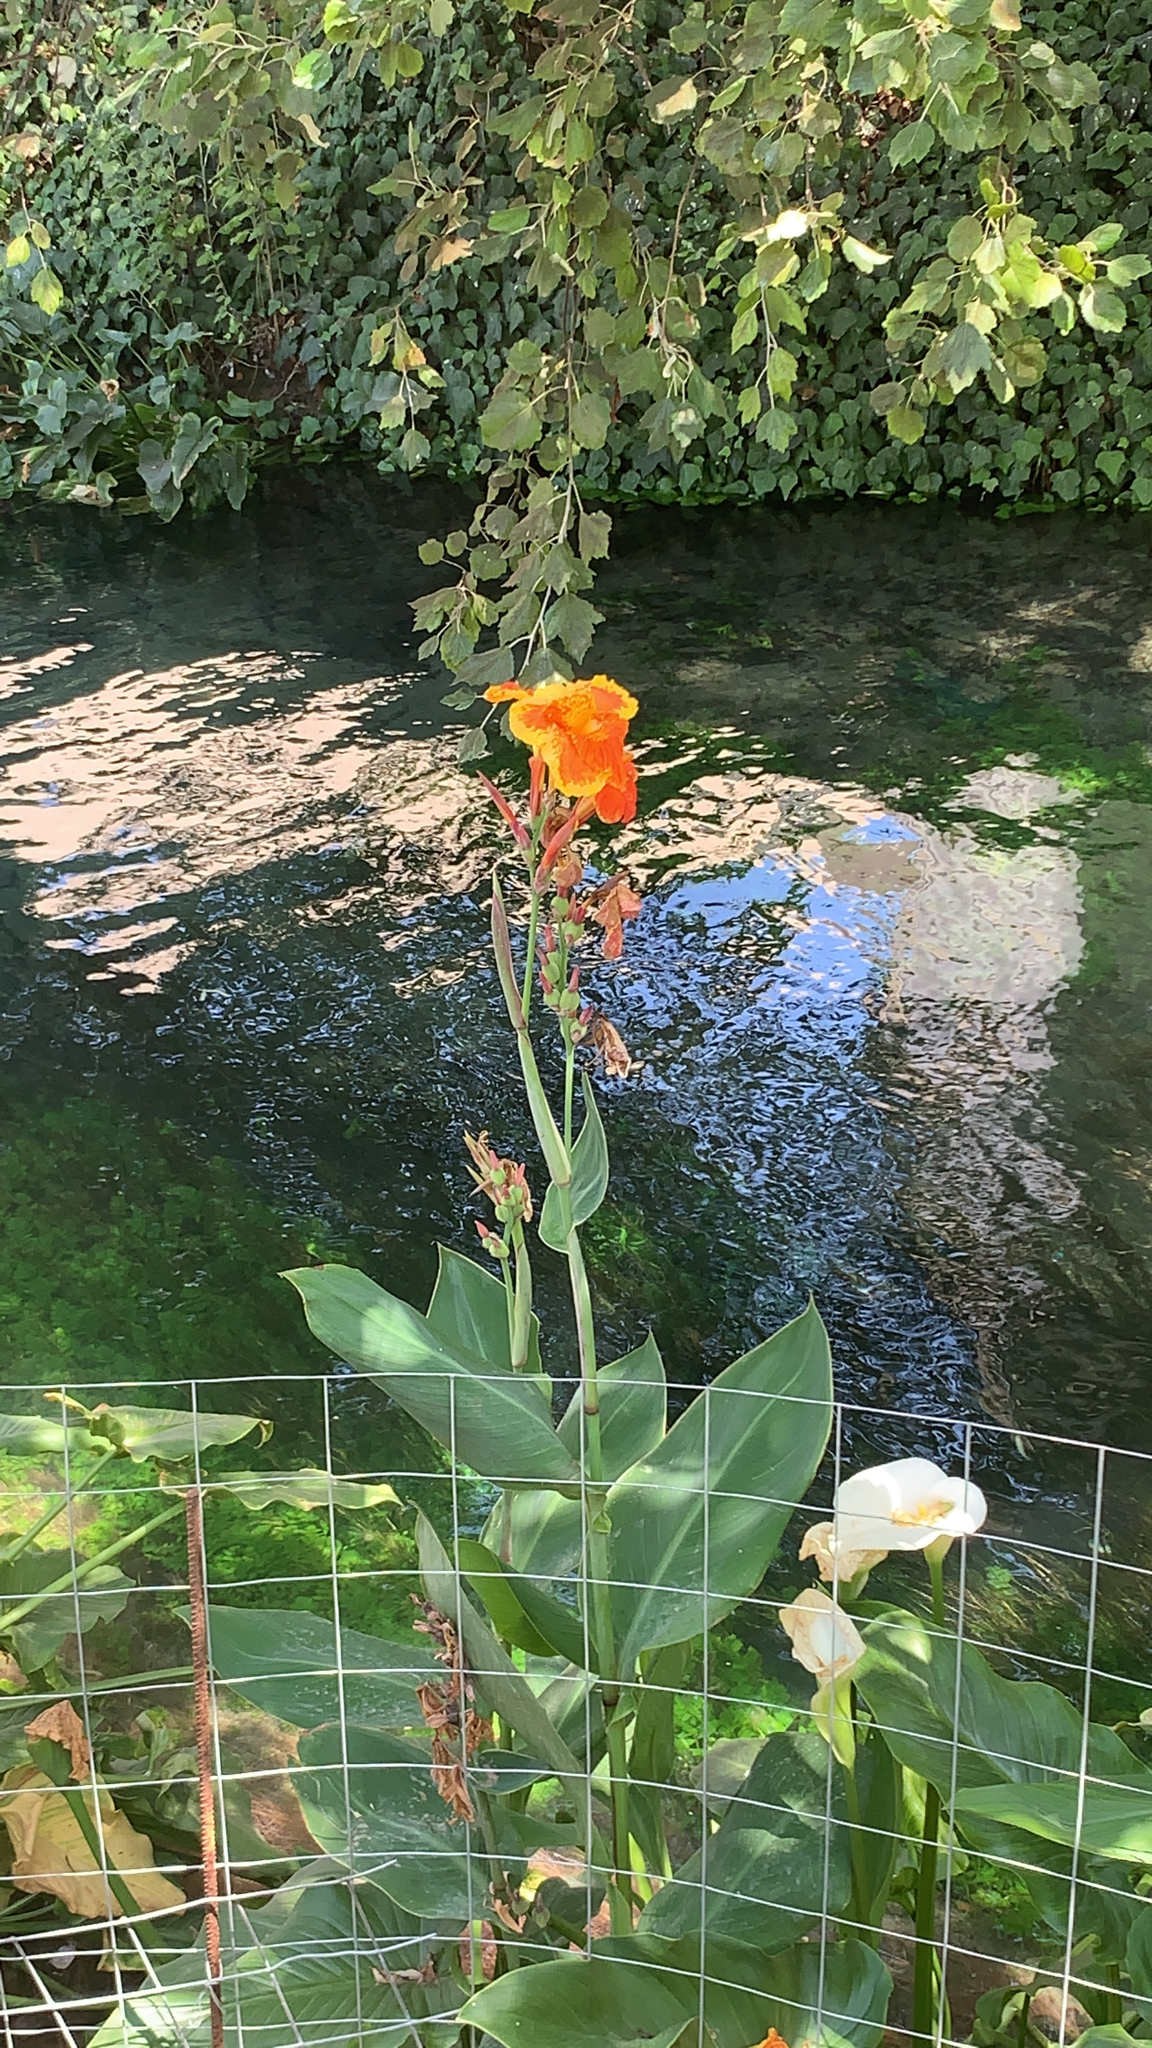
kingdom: Plantae
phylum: Tracheophyta
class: Liliopsida
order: Zingiberales
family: Cannaceae
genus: Canna
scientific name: Canna hybrida
